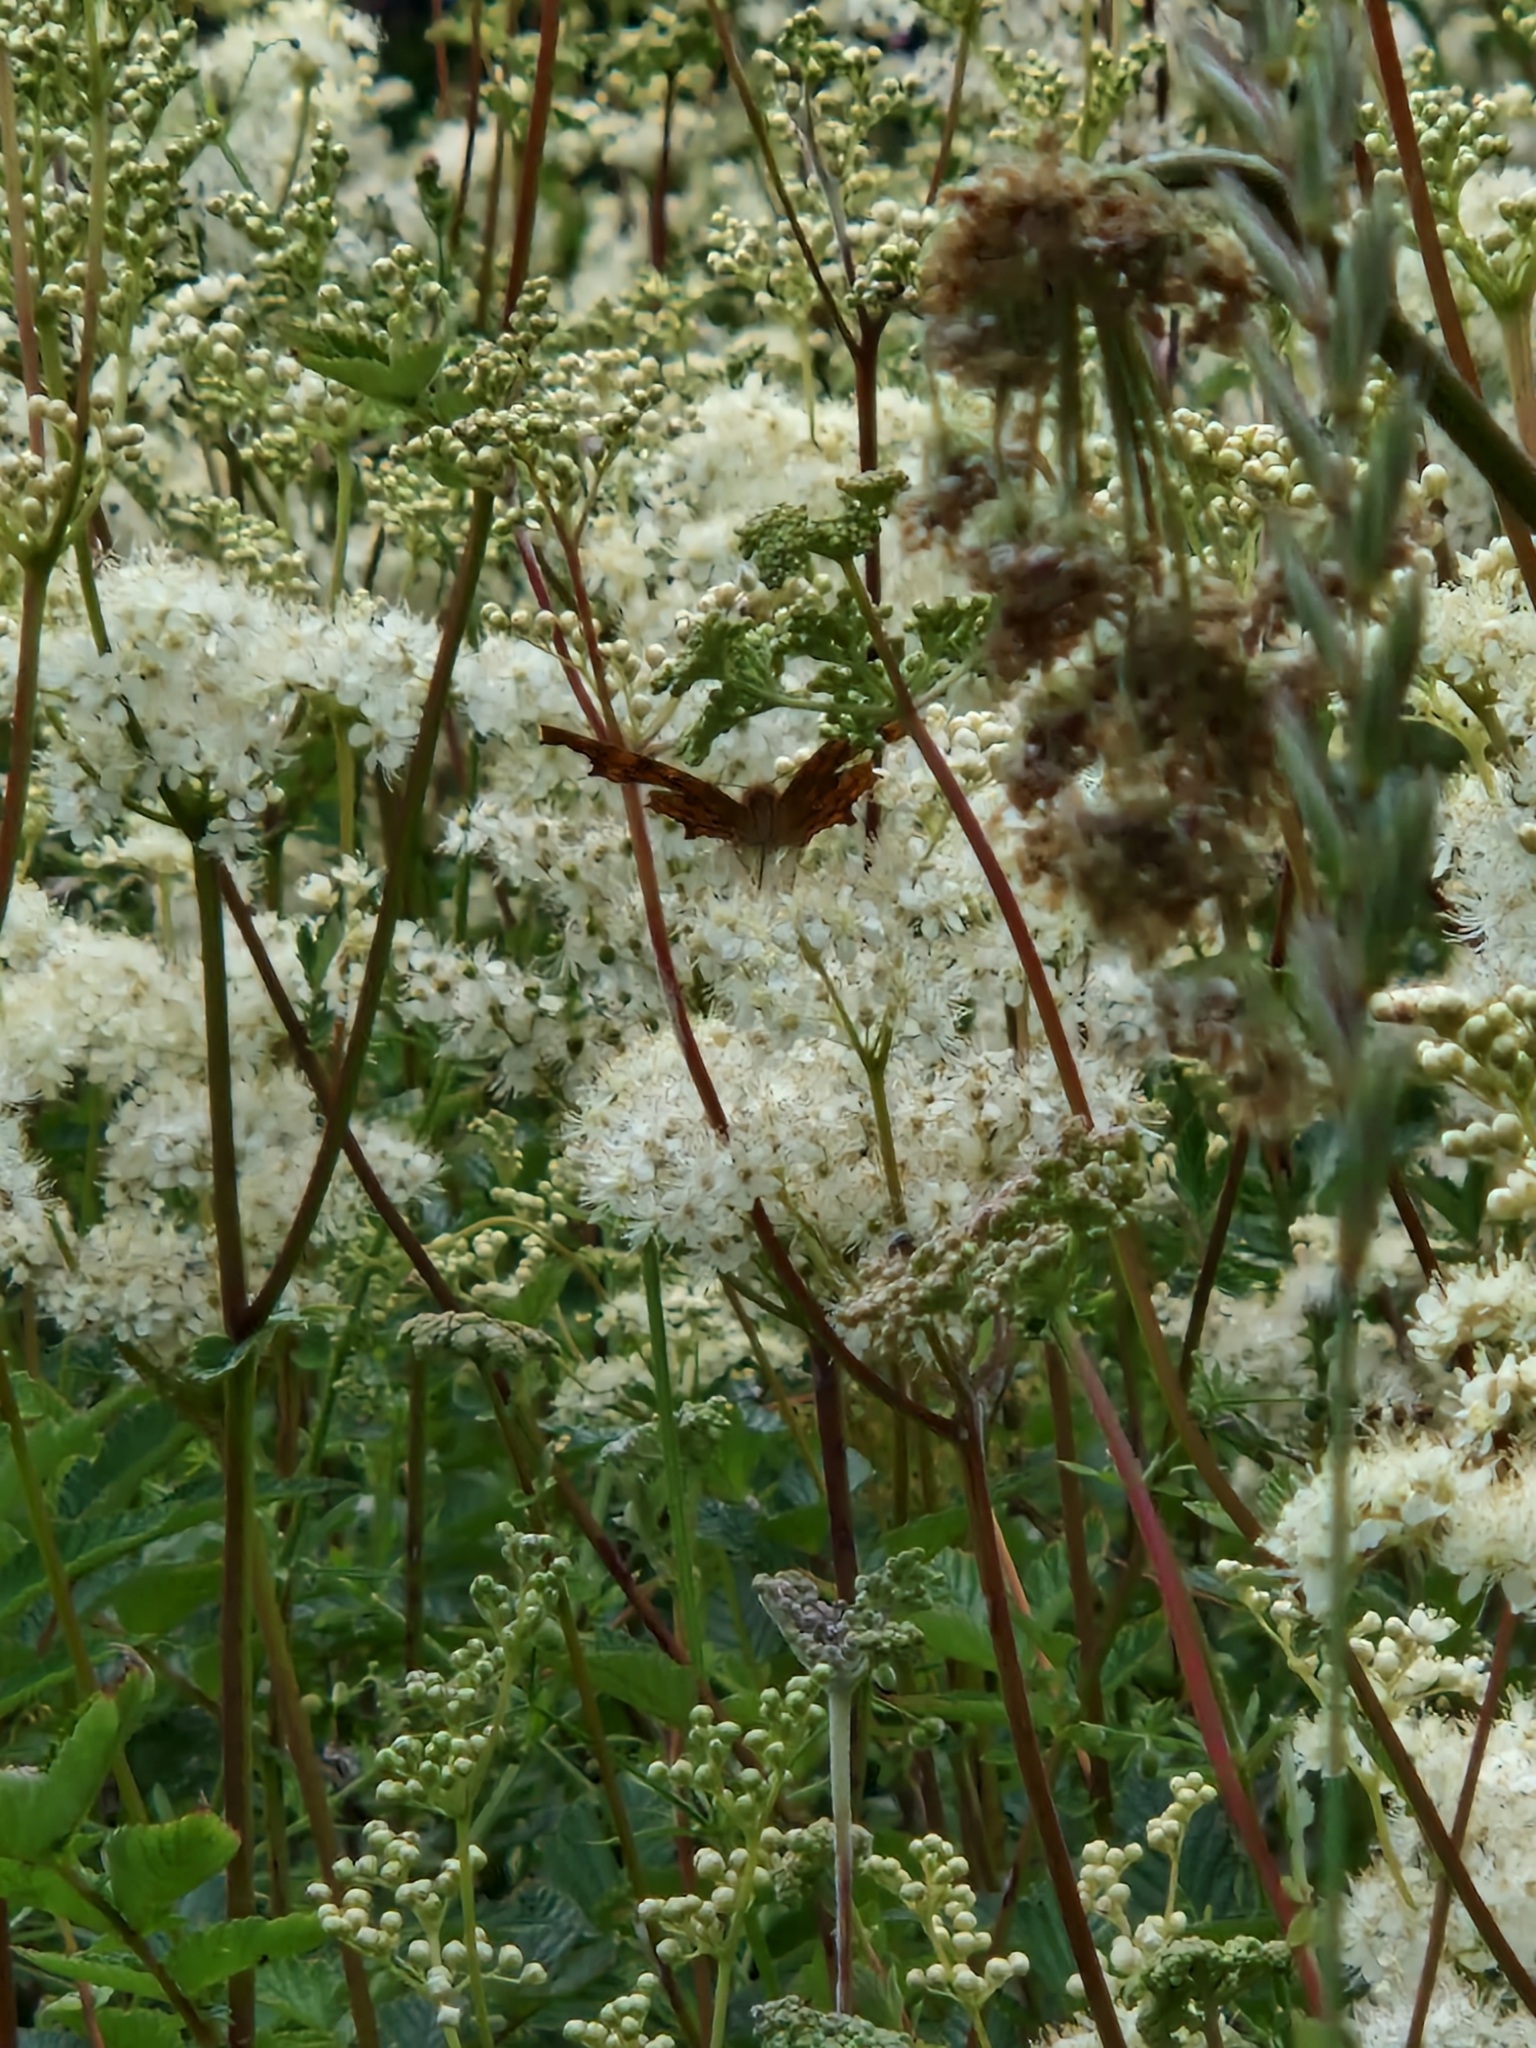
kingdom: Animalia
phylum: Arthropoda
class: Insecta
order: Lepidoptera
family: Nymphalidae
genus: Polygonia
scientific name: Polygonia c-album
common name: Comma
